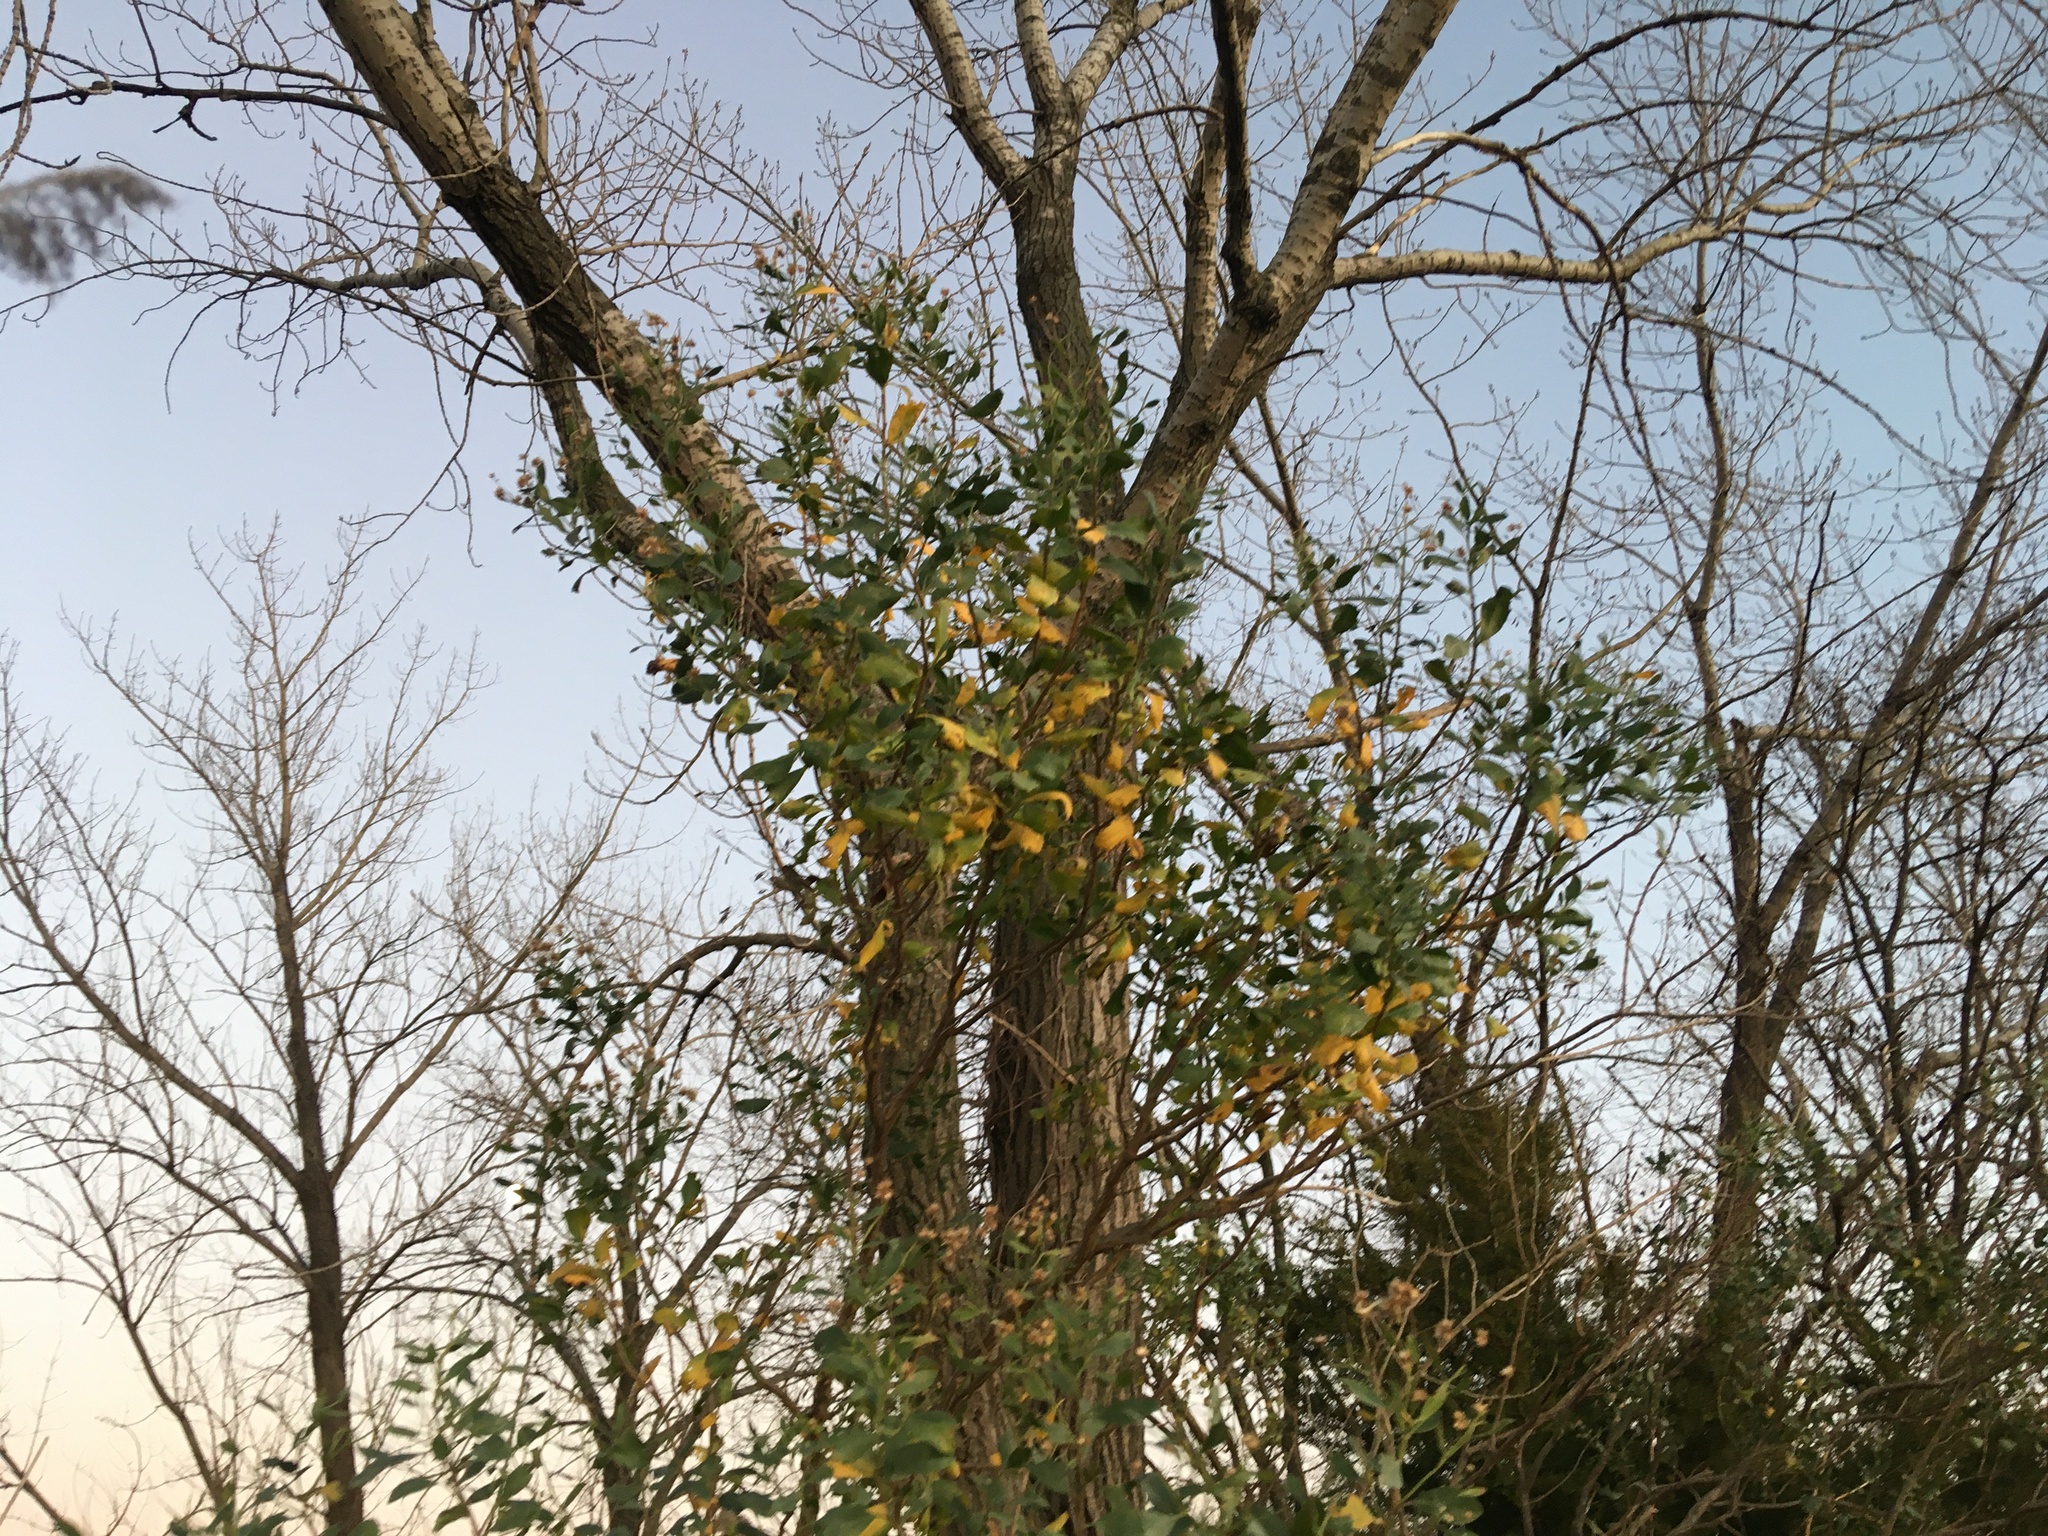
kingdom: Plantae
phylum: Tracheophyta
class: Magnoliopsida
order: Asterales
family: Asteraceae
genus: Baccharis
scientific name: Baccharis halimifolia
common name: Eastern baccharis
